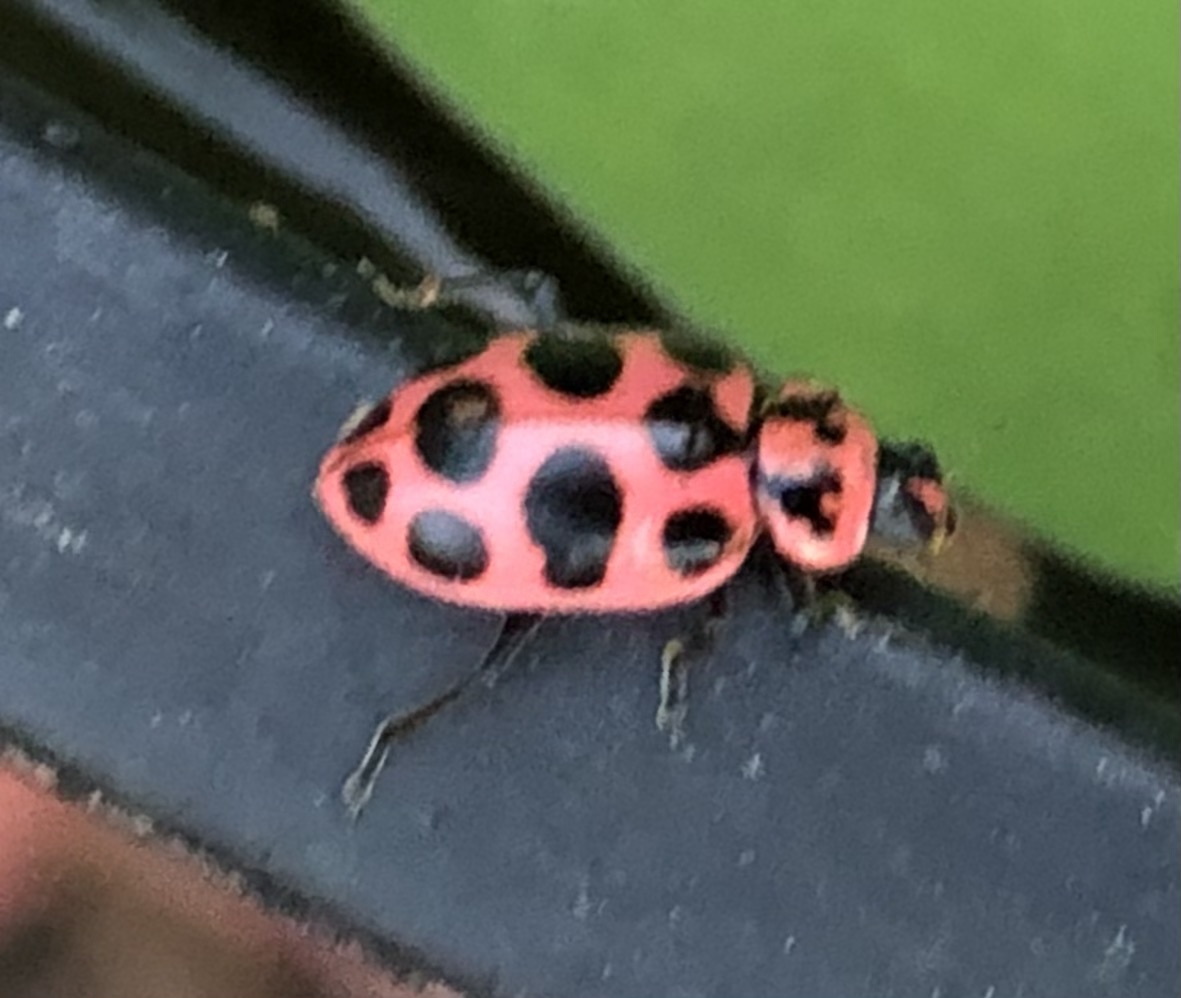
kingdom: Animalia
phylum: Arthropoda
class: Insecta
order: Coleoptera
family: Coccinellidae
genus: Coleomegilla
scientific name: Coleomegilla maculata
